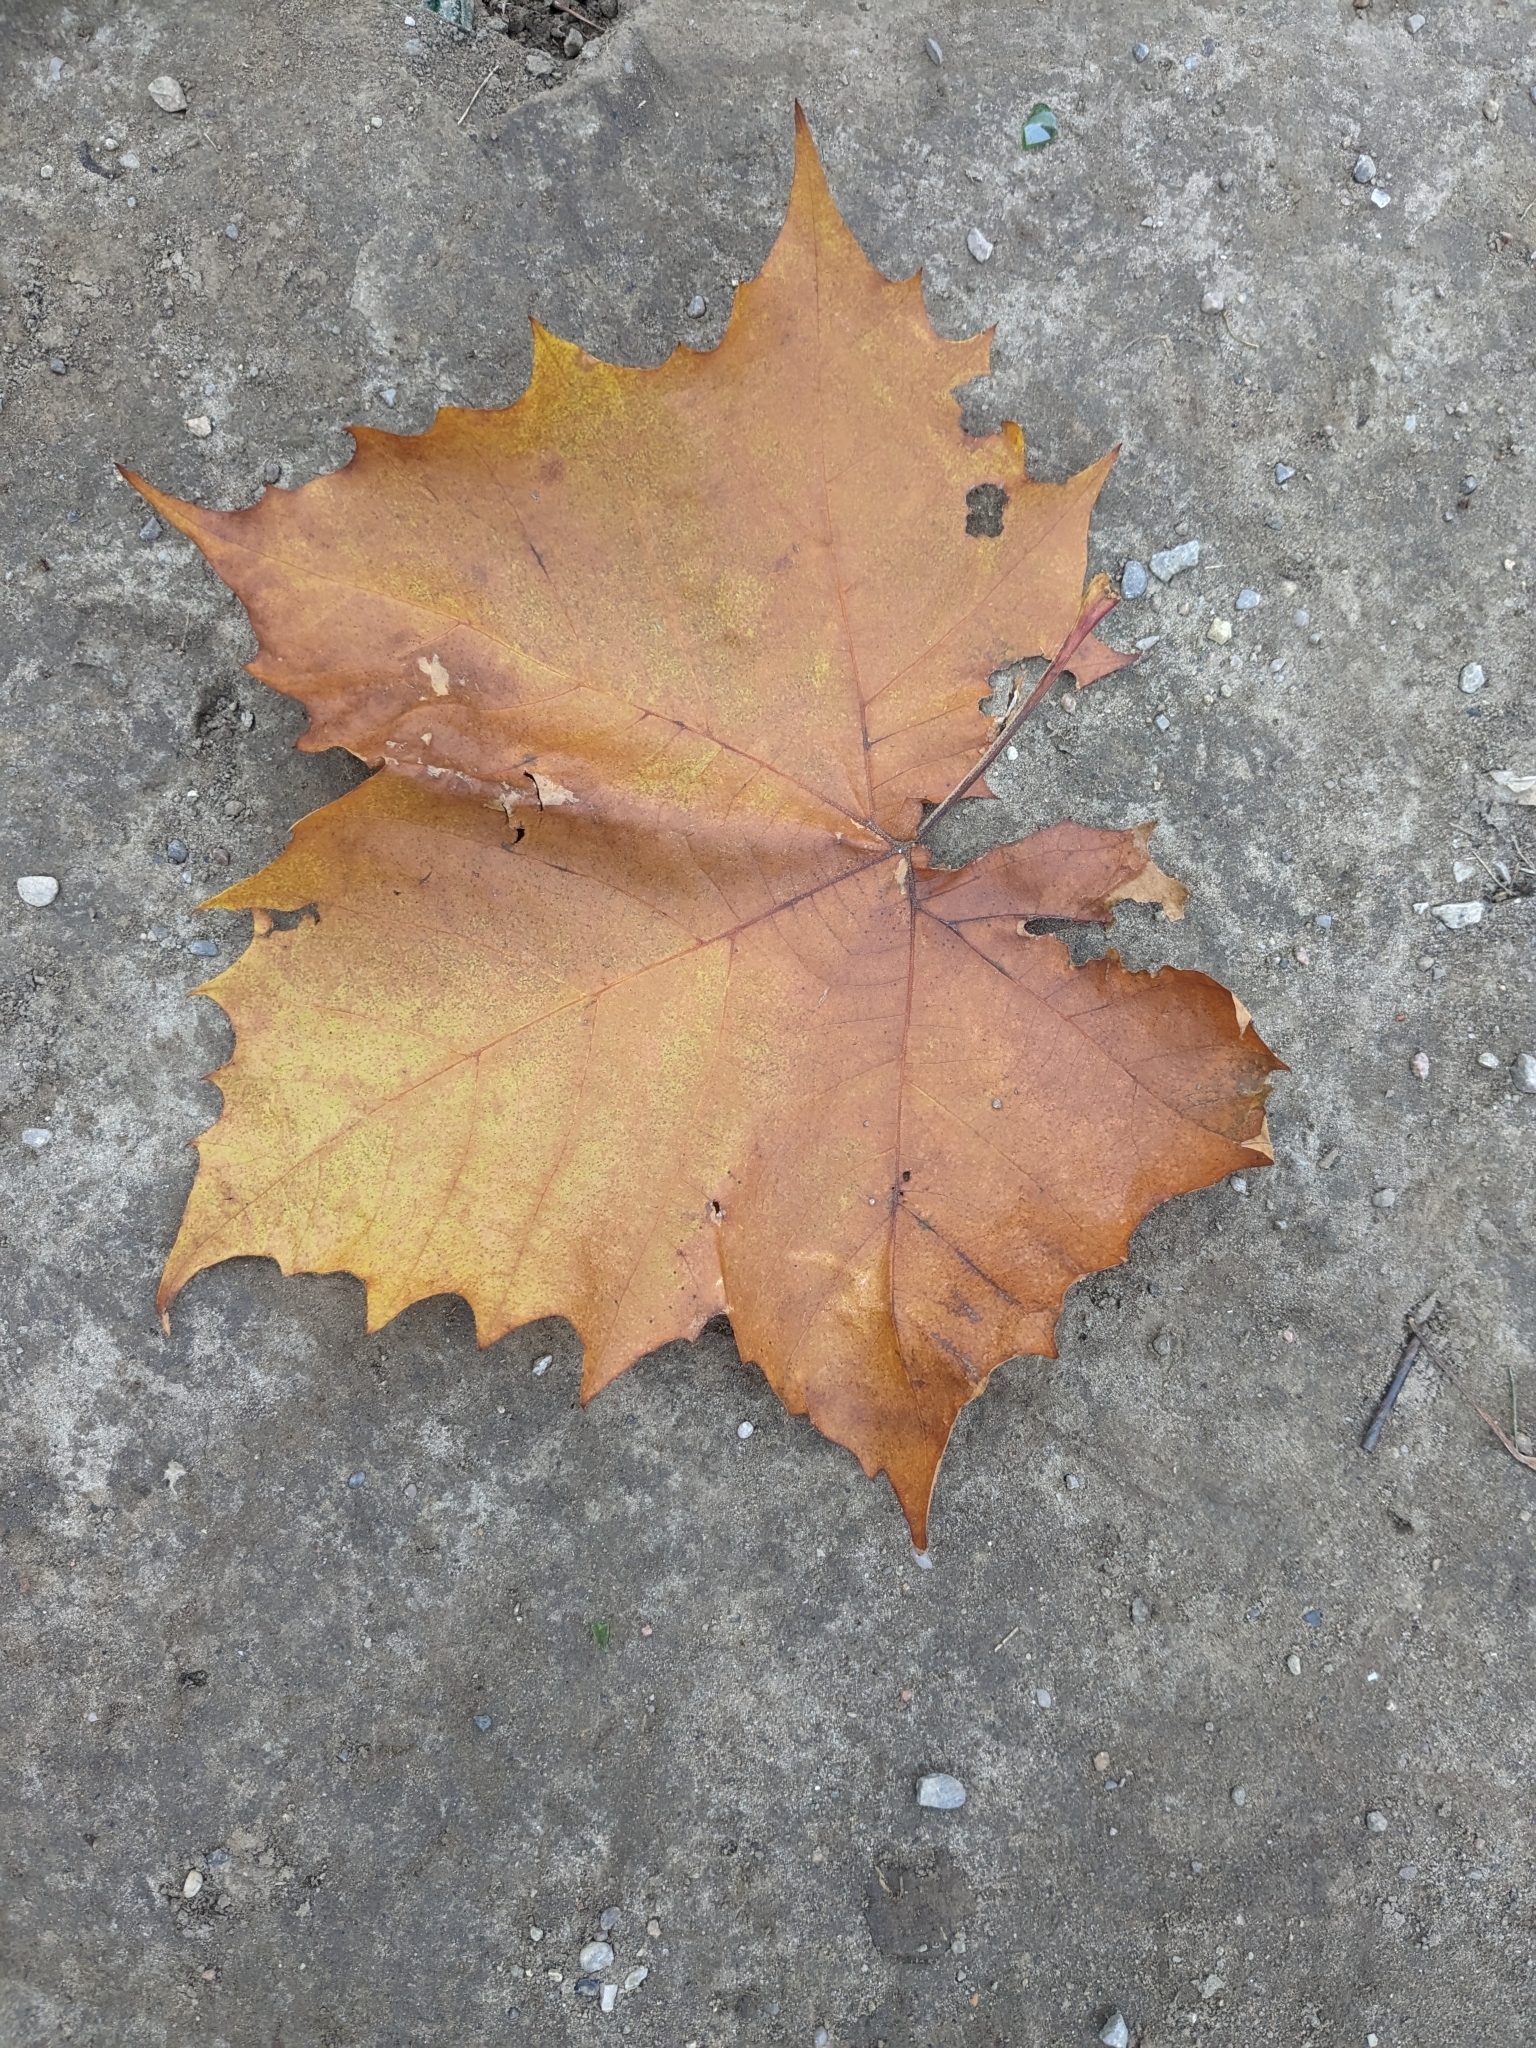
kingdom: Plantae
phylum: Tracheophyta
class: Magnoliopsida
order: Proteales
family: Platanaceae
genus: Platanus
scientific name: Platanus occidentalis
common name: American sycamore
